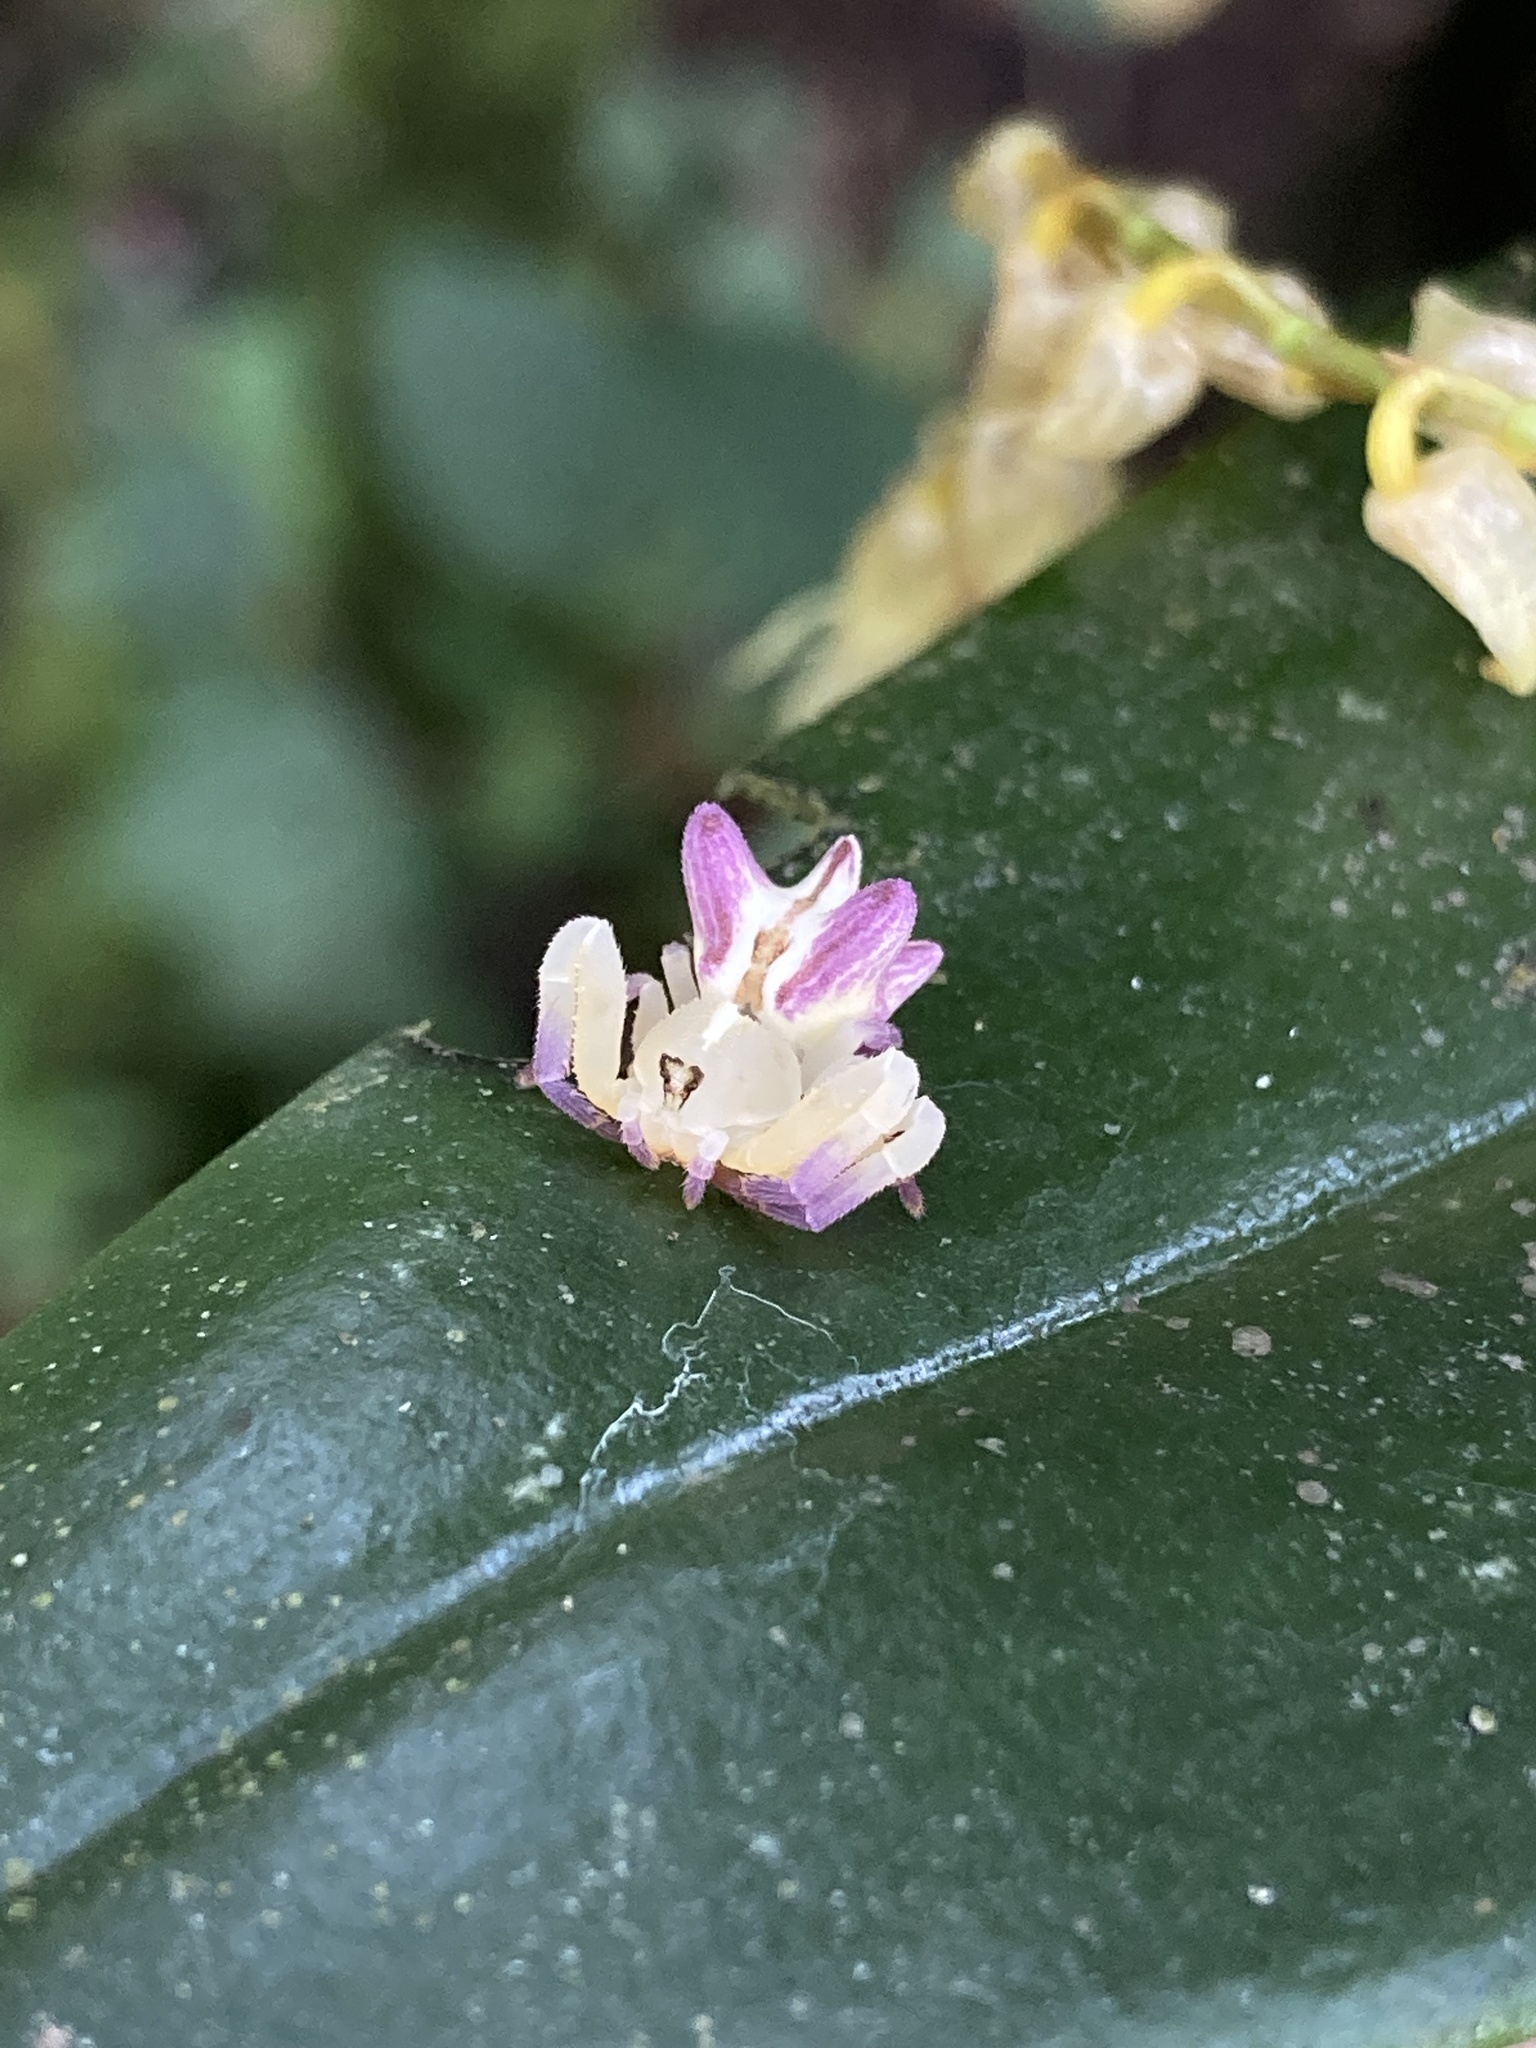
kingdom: Animalia
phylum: Arthropoda
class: Arachnida
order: Araneae
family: Thomisidae
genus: Epicadus
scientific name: Epicadus heterogaster
